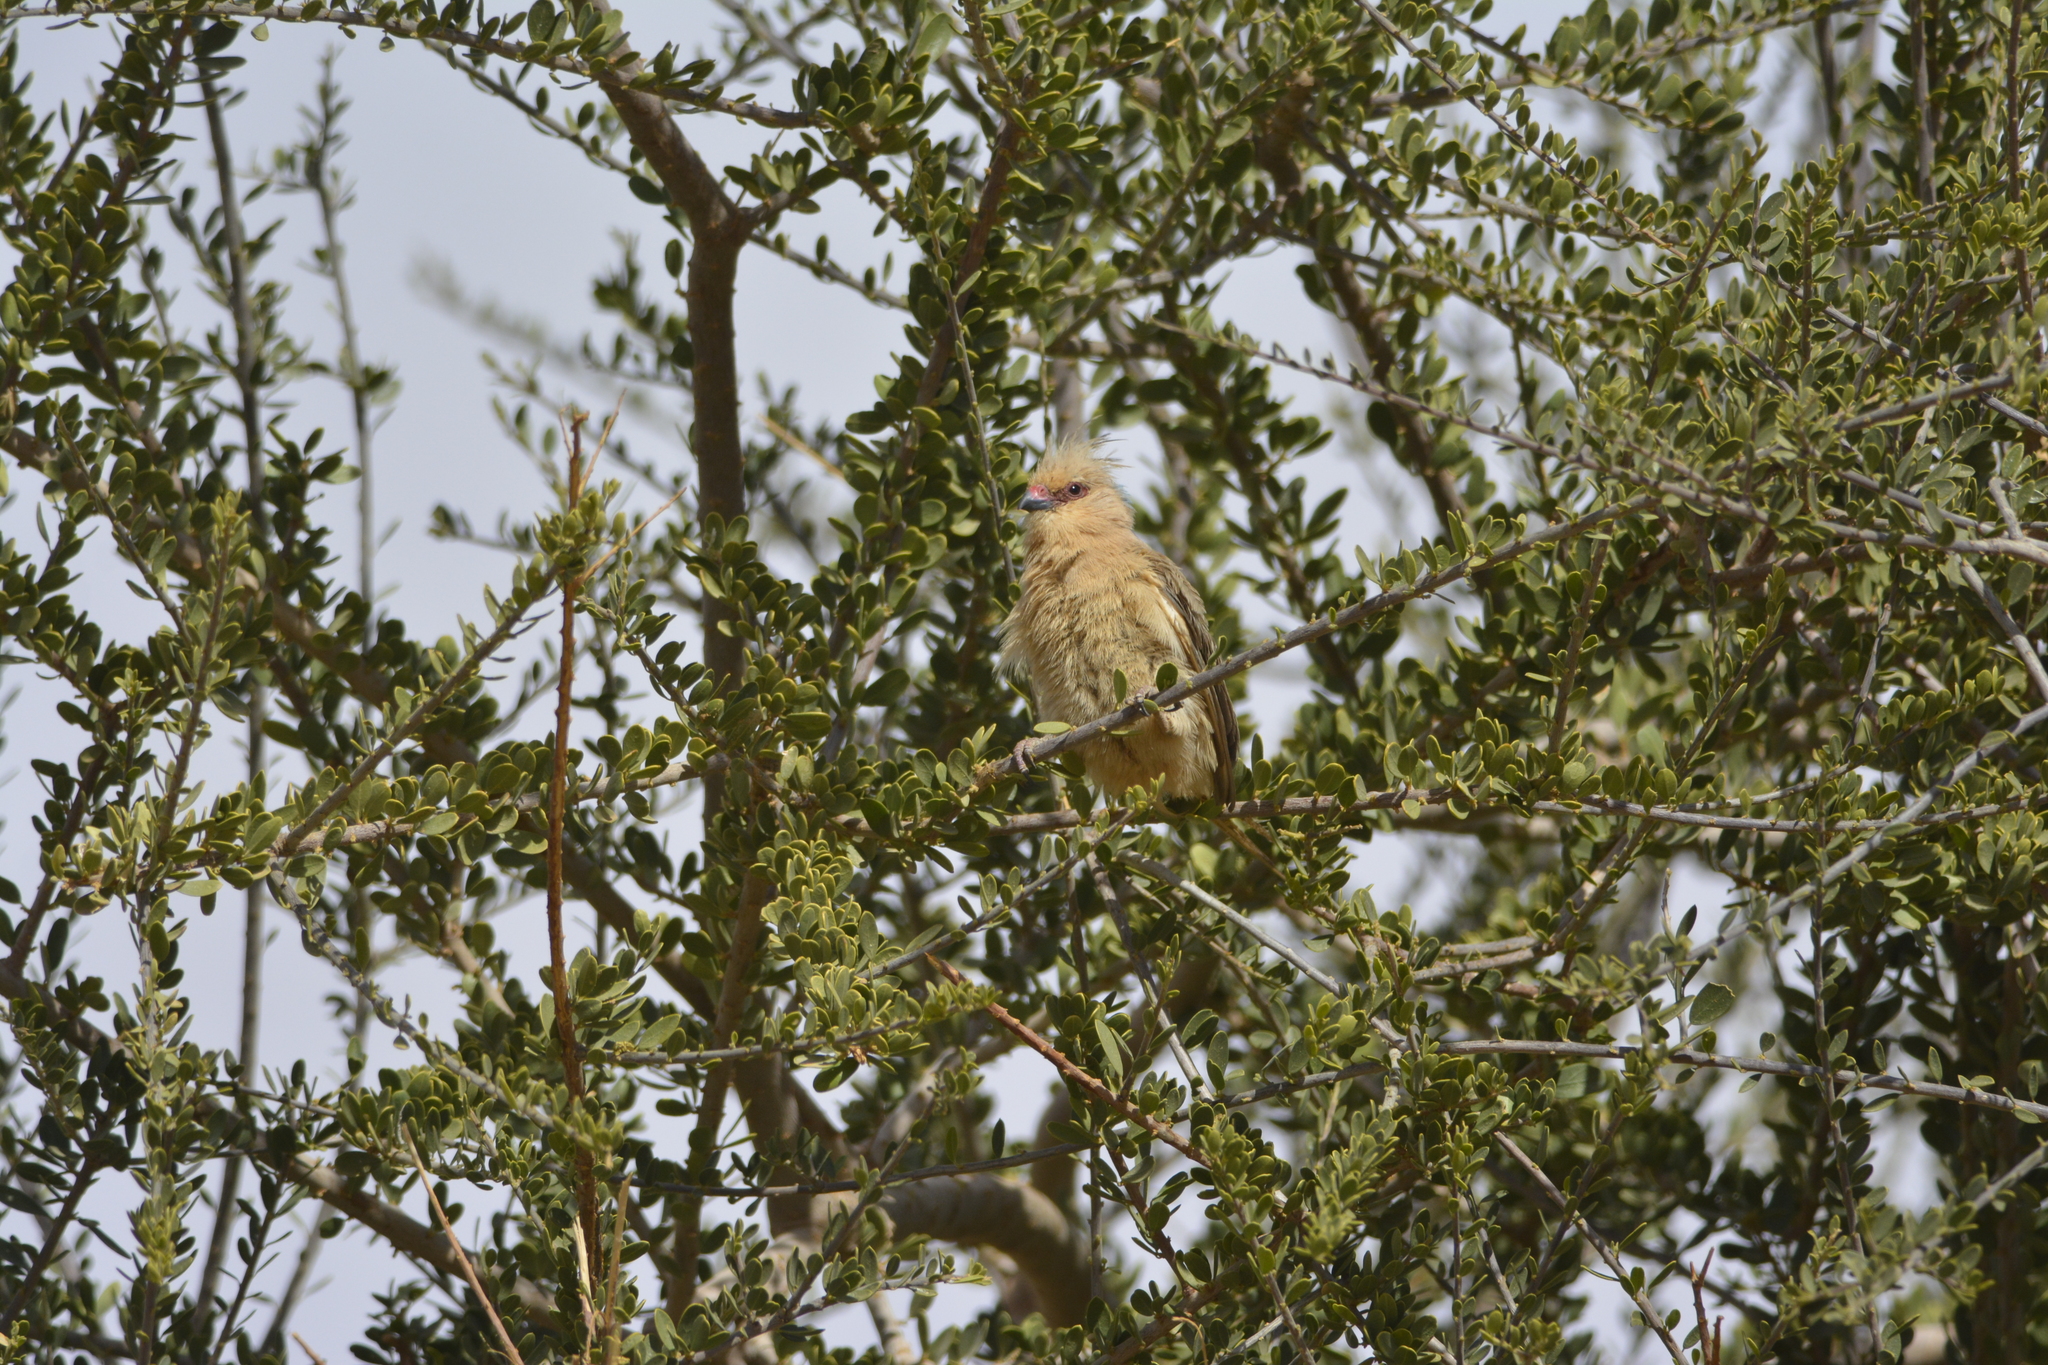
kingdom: Animalia
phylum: Chordata
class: Aves
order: Coliiformes
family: Coliidae
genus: Urocolius
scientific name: Urocolius macrourus
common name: Blue-naped mousebird
